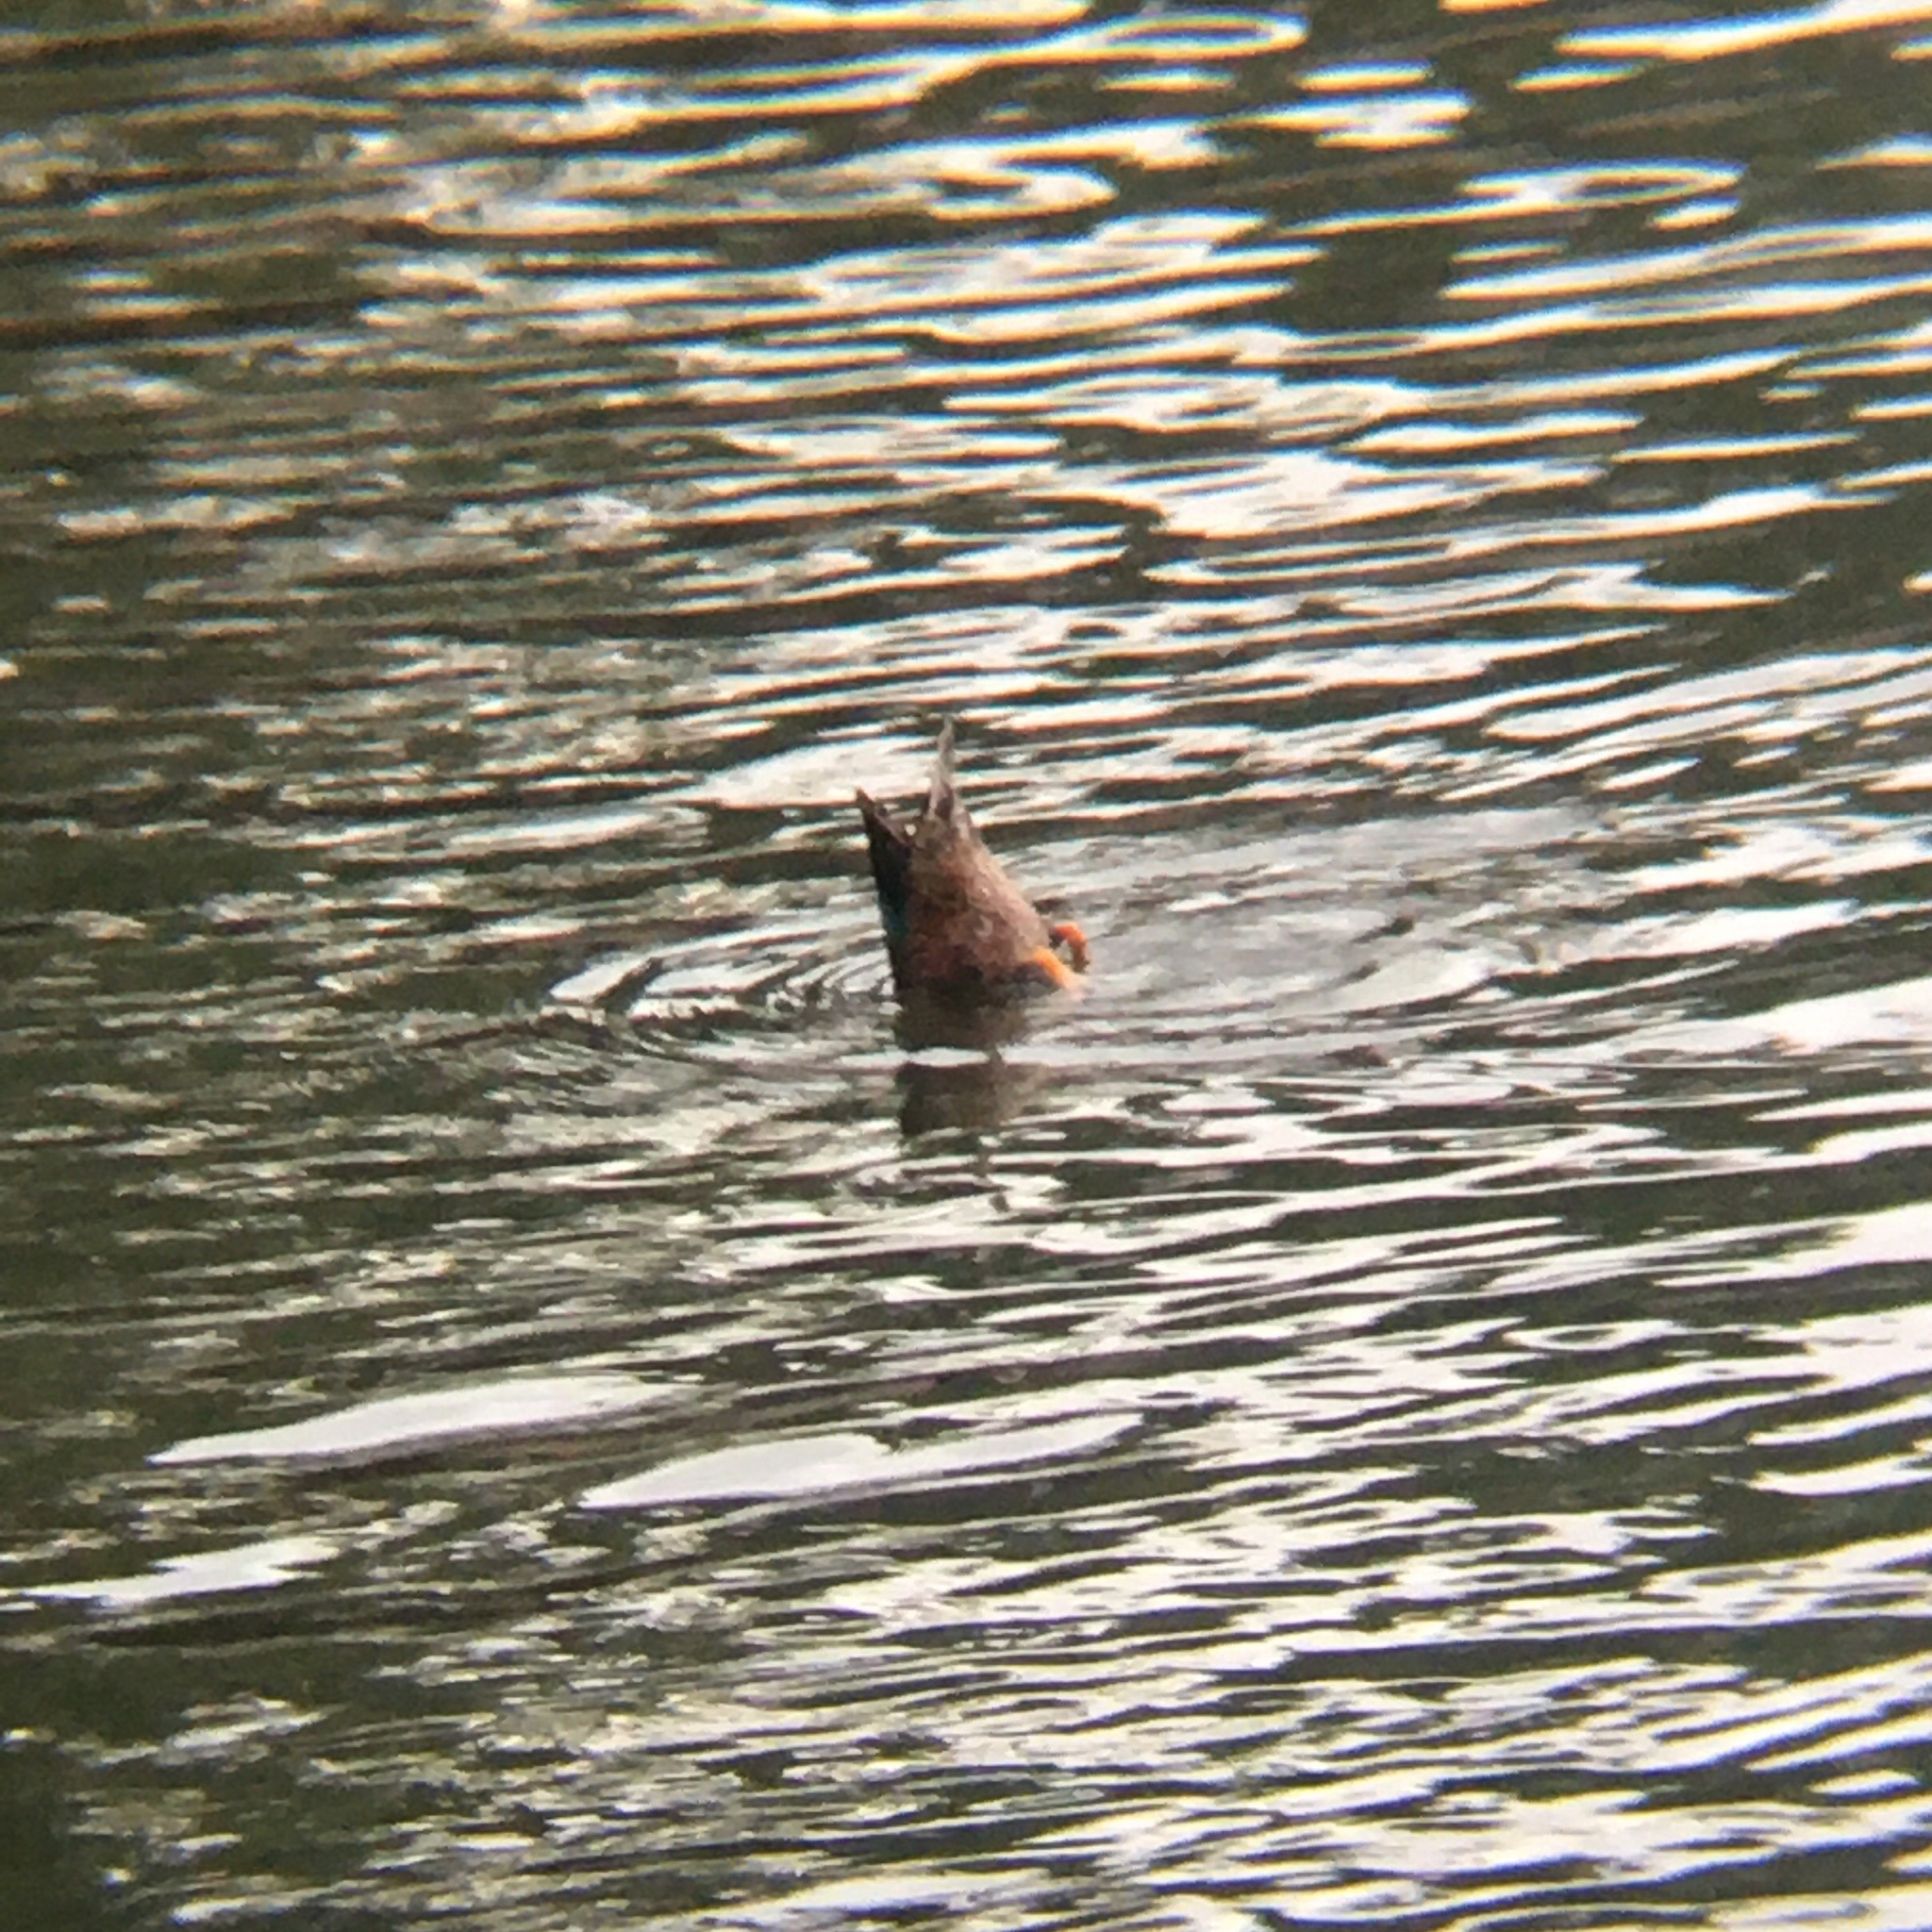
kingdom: Animalia
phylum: Chordata
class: Aves
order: Anseriformes
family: Anatidae
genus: Spatula
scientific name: Spatula cyanoptera
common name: Cinnamon teal
